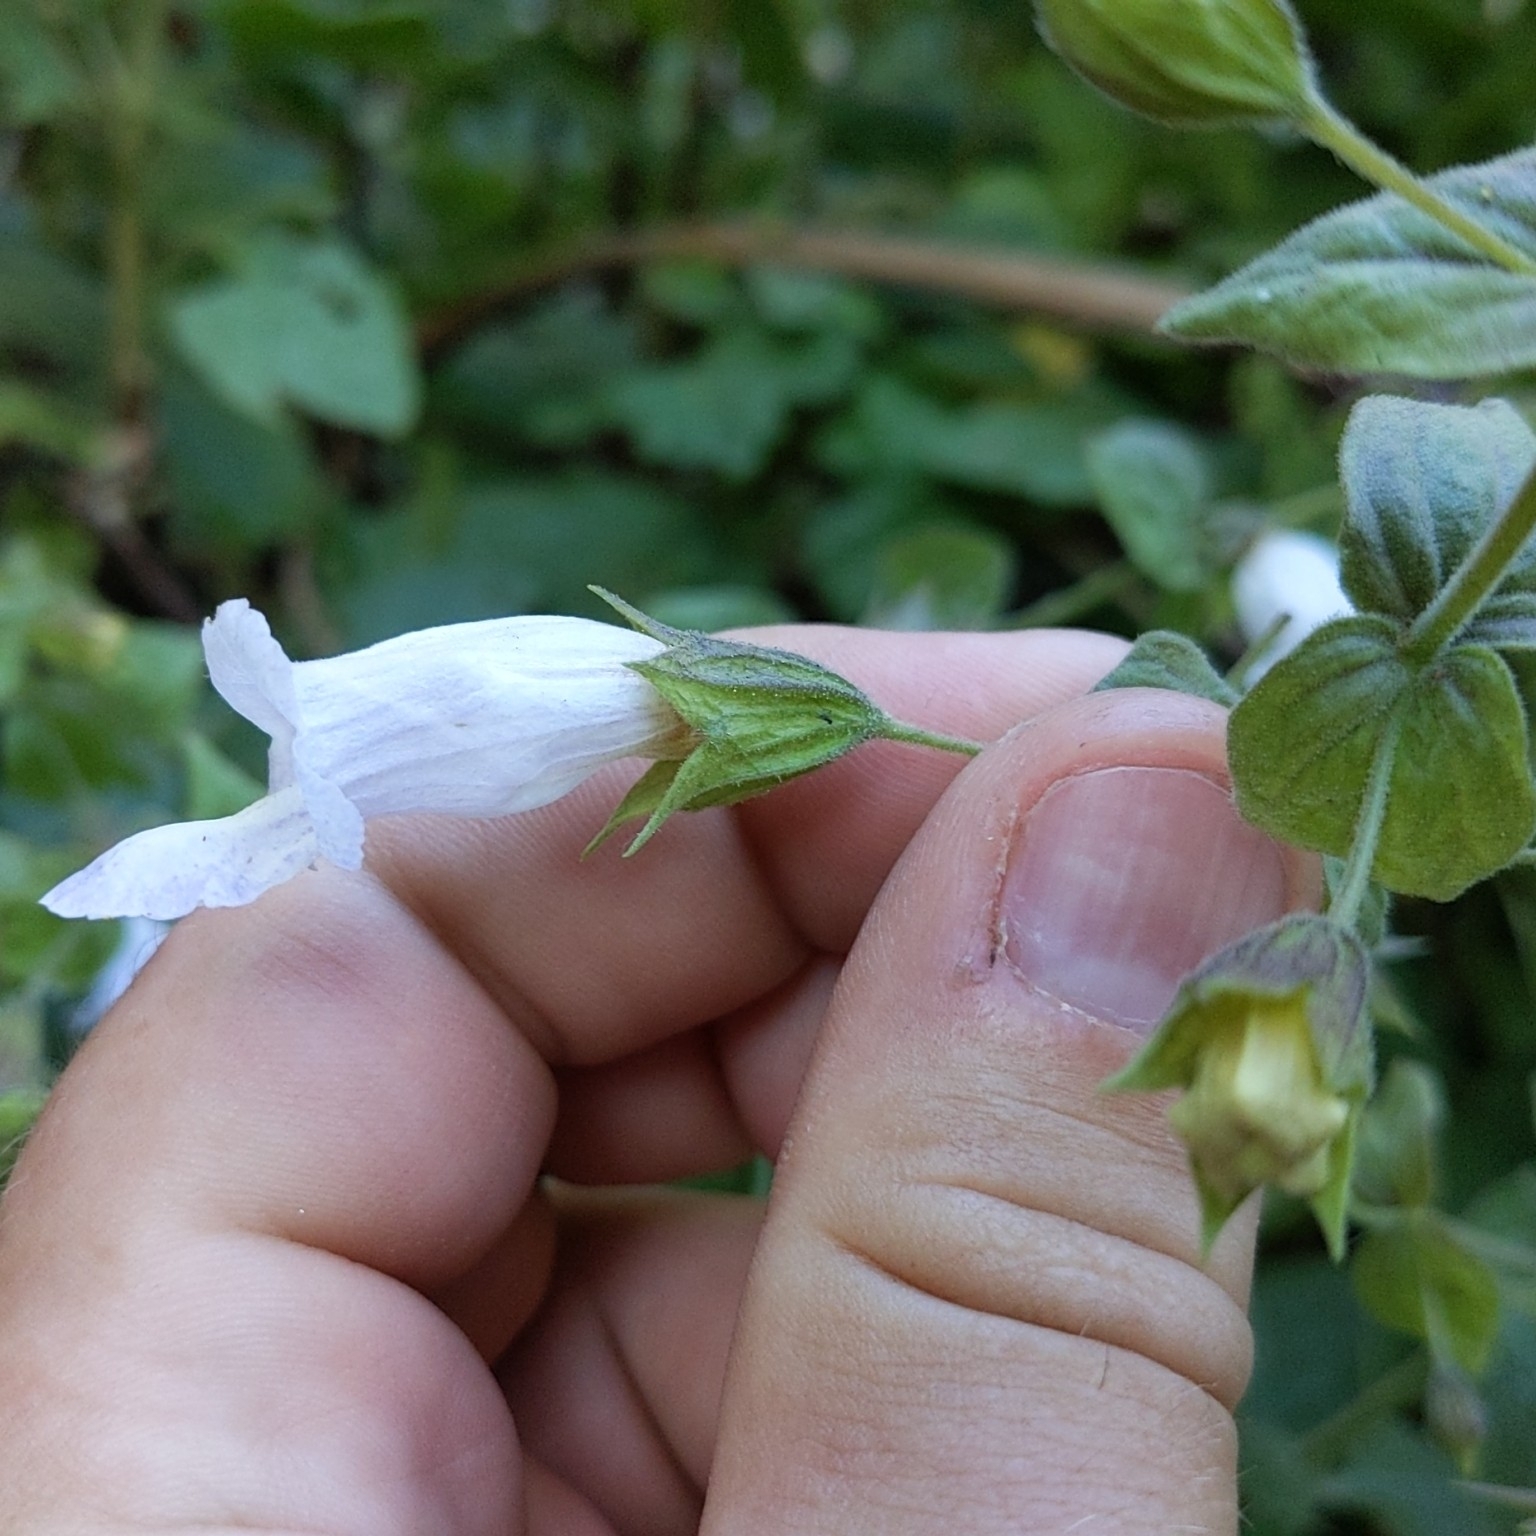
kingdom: Plantae
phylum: Tracheophyta
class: Magnoliopsida
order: Lamiales
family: Lamiaceae
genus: Lepechinia
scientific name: Lepechinia cardiophylla
